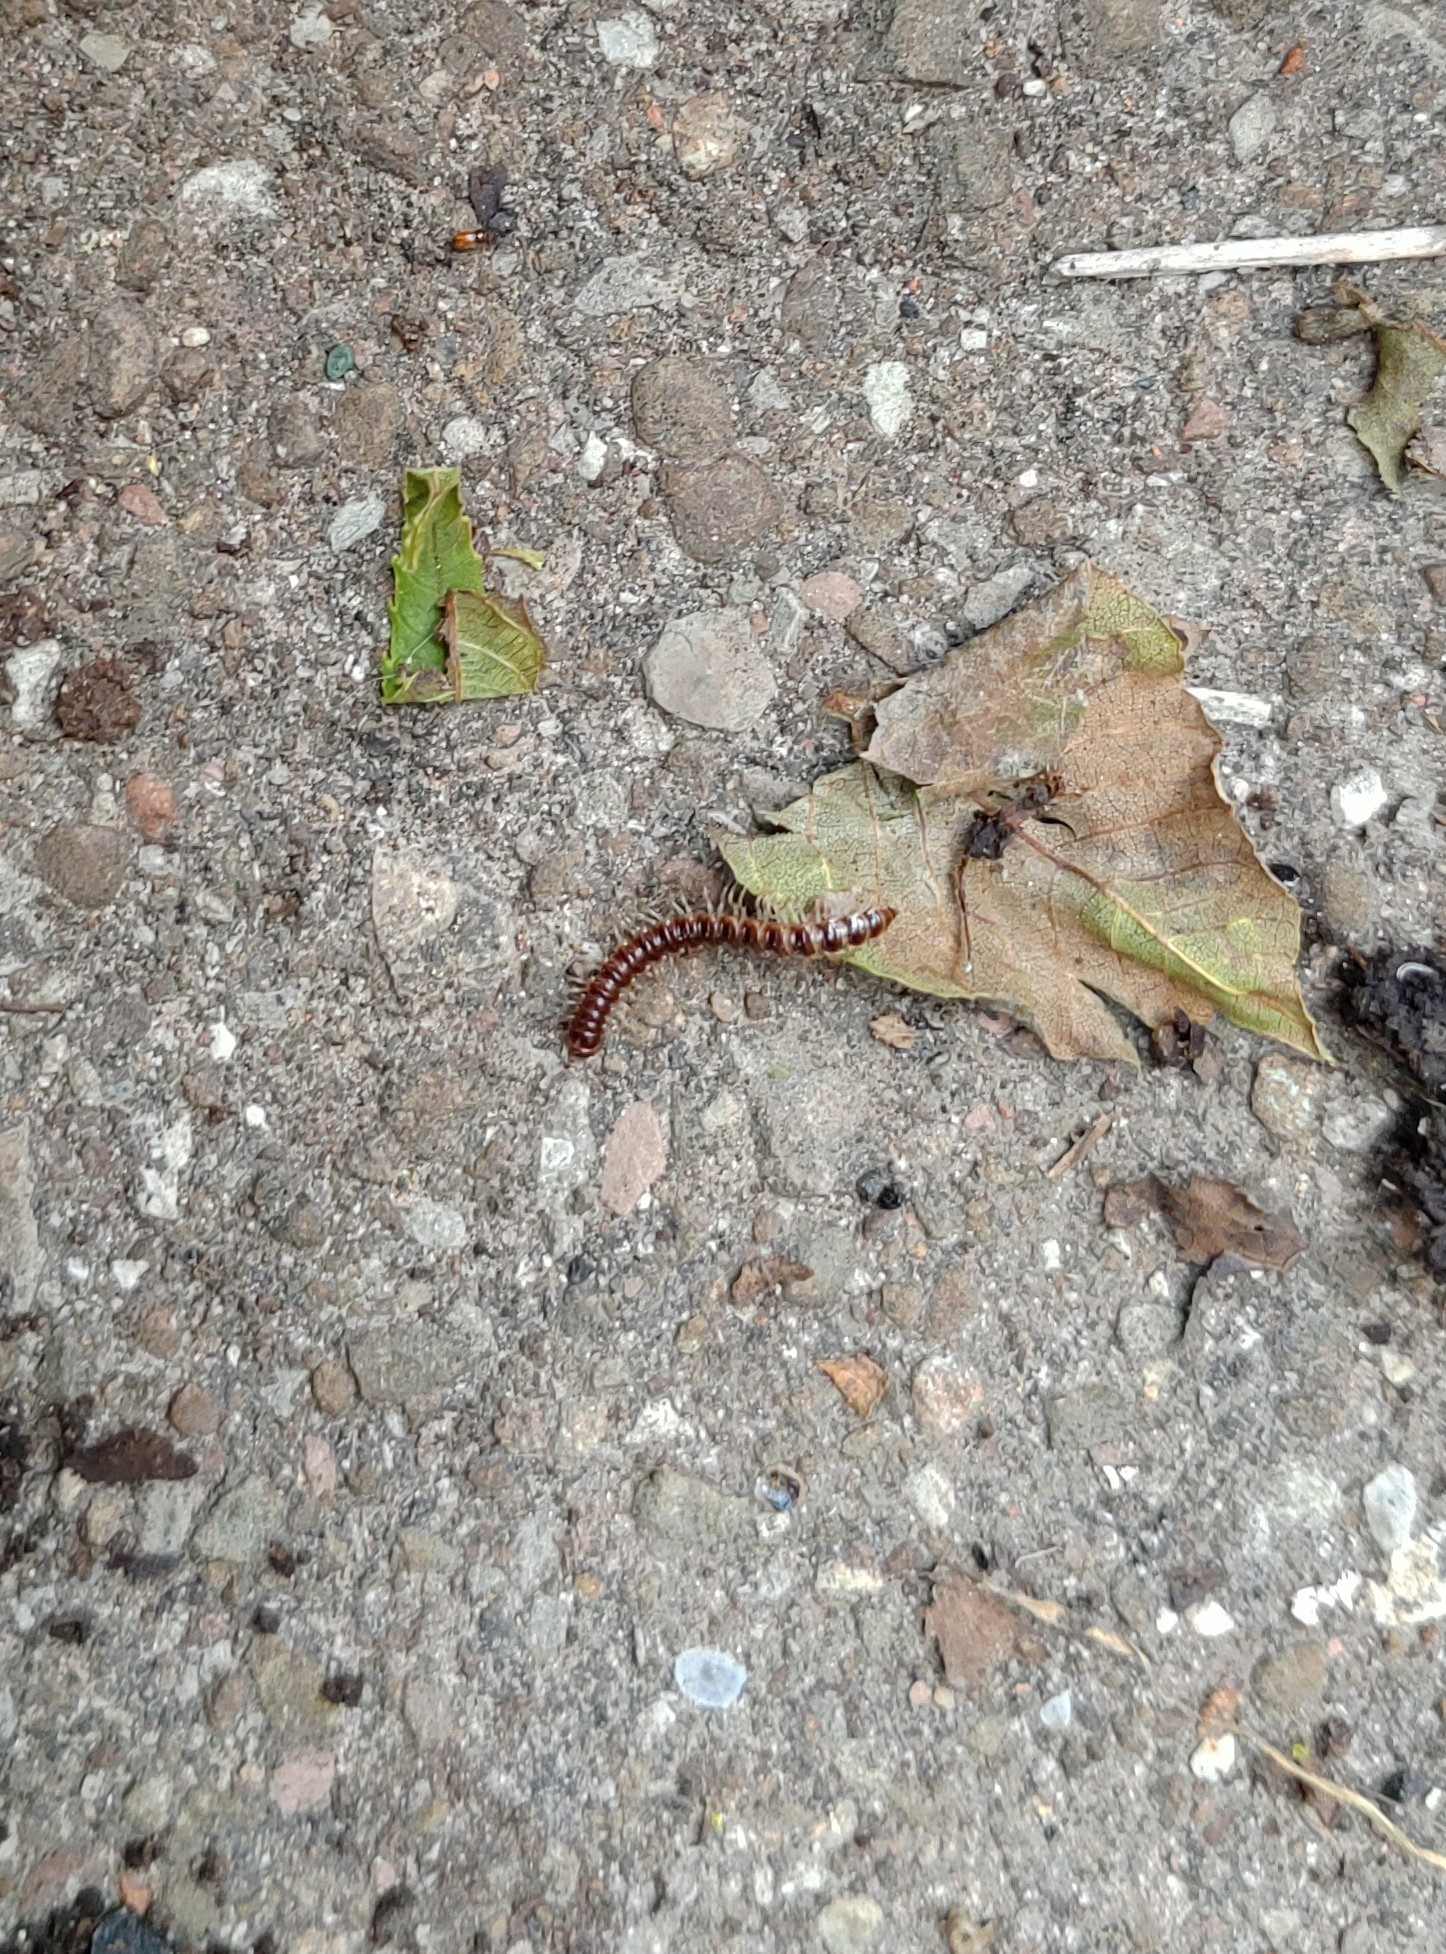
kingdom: Animalia
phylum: Arthropoda
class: Diplopoda
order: Polydesmida
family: Paradoxosomatidae
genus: Oxidus
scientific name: Oxidus gracilis
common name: Greenhouse millipede
